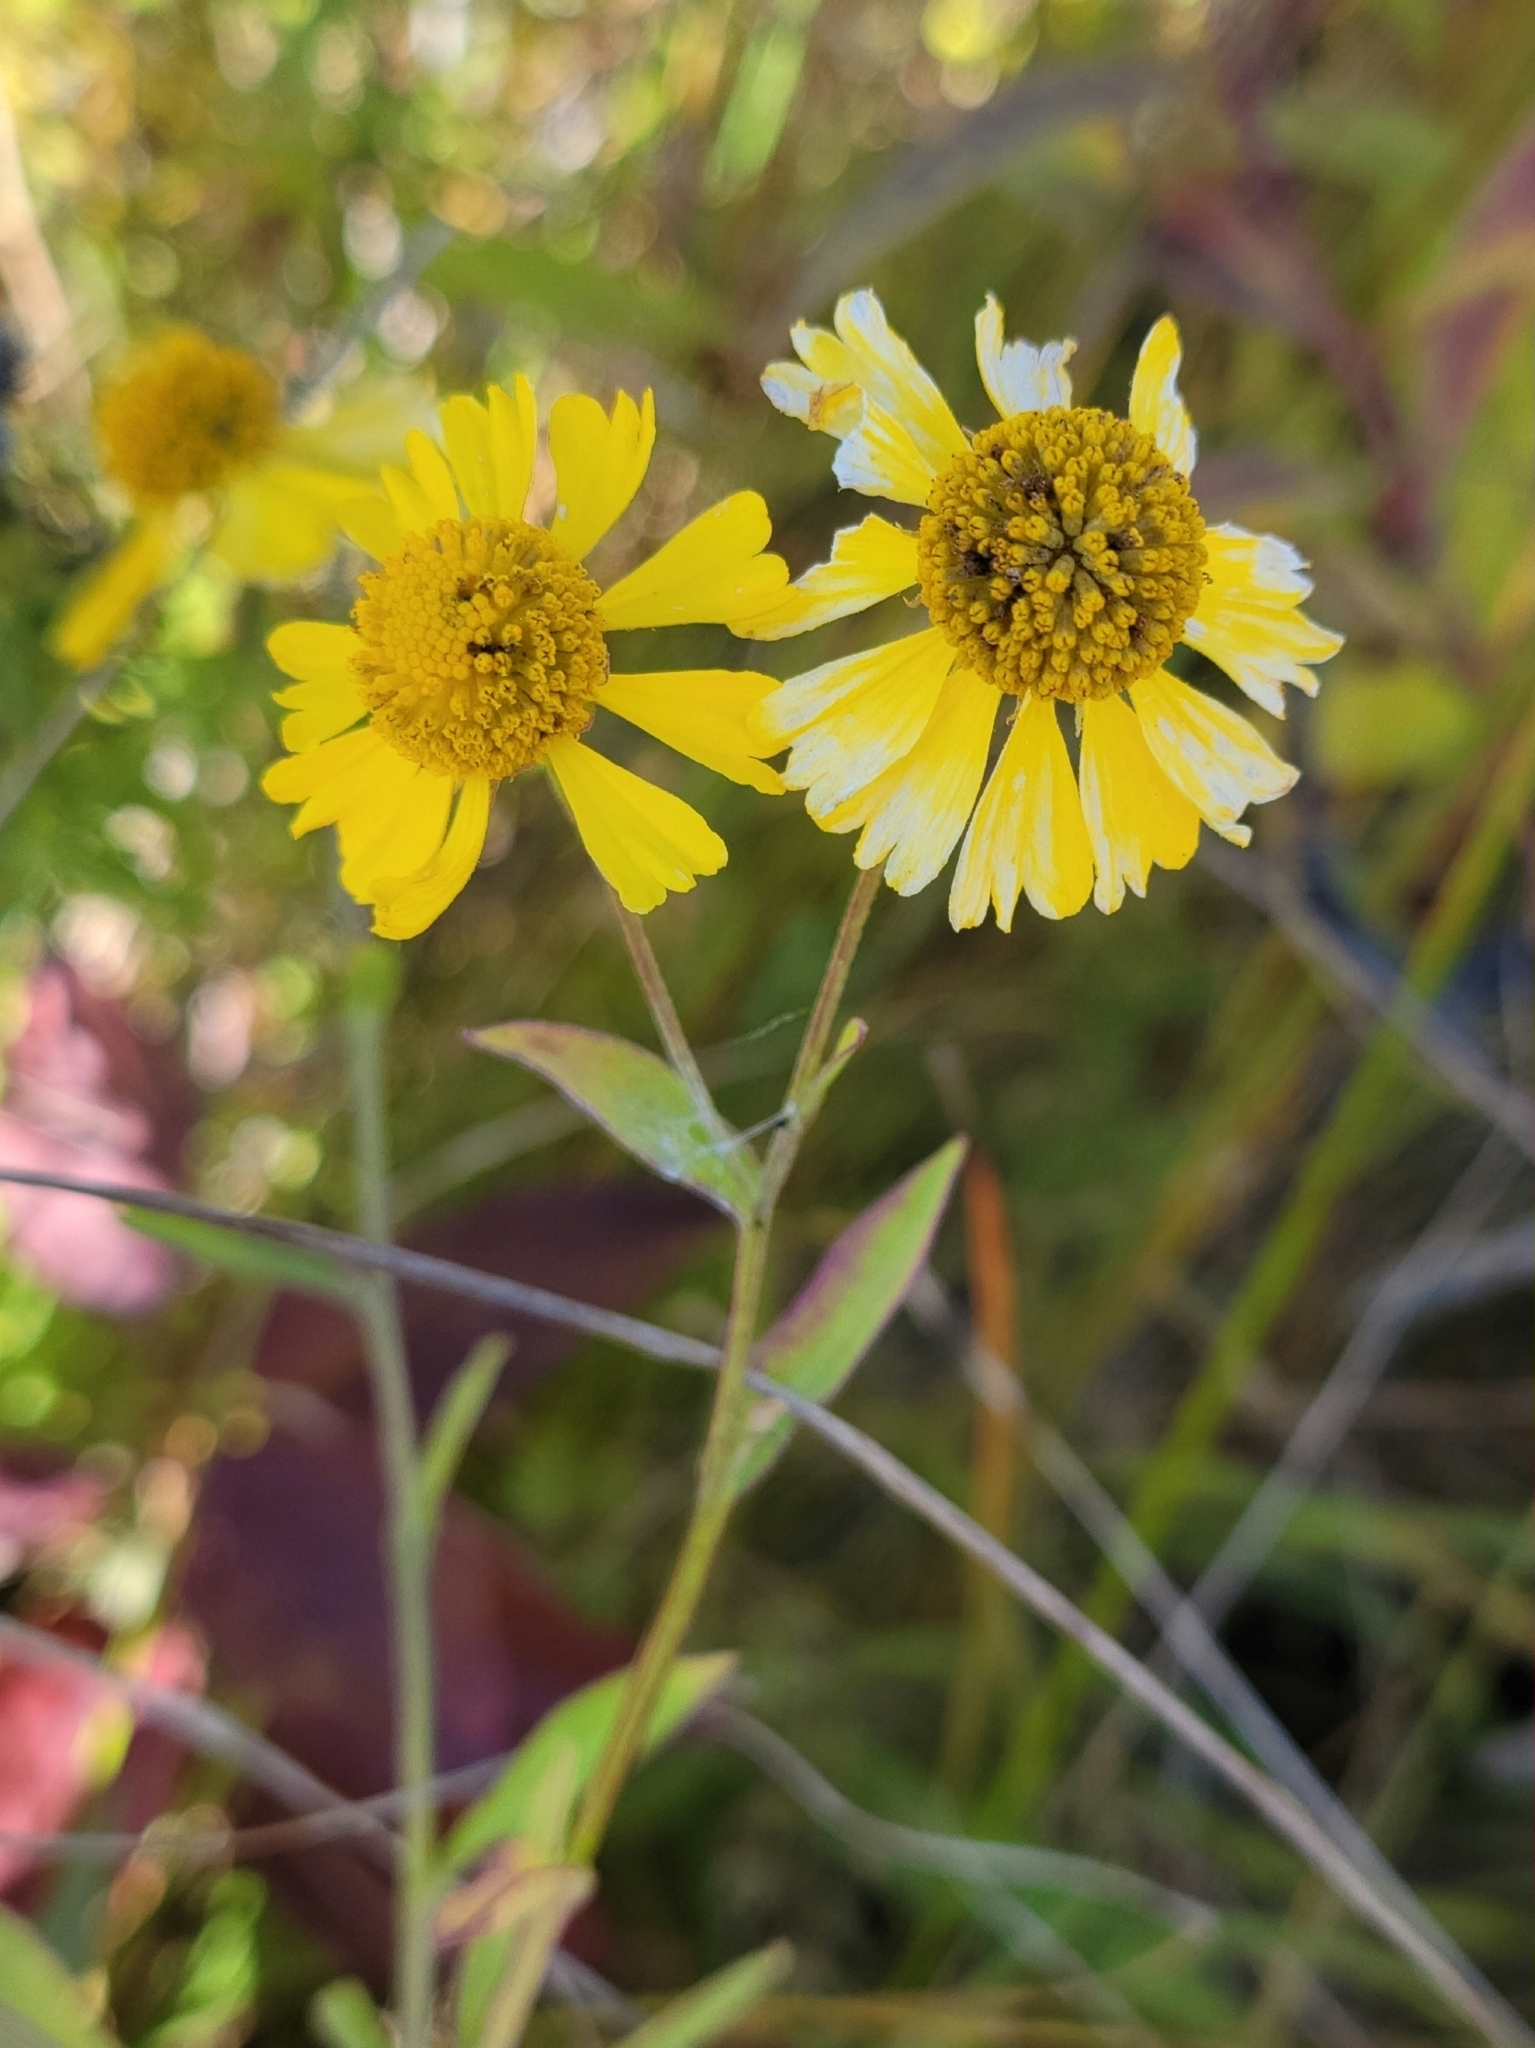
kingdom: Plantae
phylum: Tracheophyta
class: Magnoliopsida
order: Asterales
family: Asteraceae
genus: Helenium
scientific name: Helenium autumnale
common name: Sneezeweed
